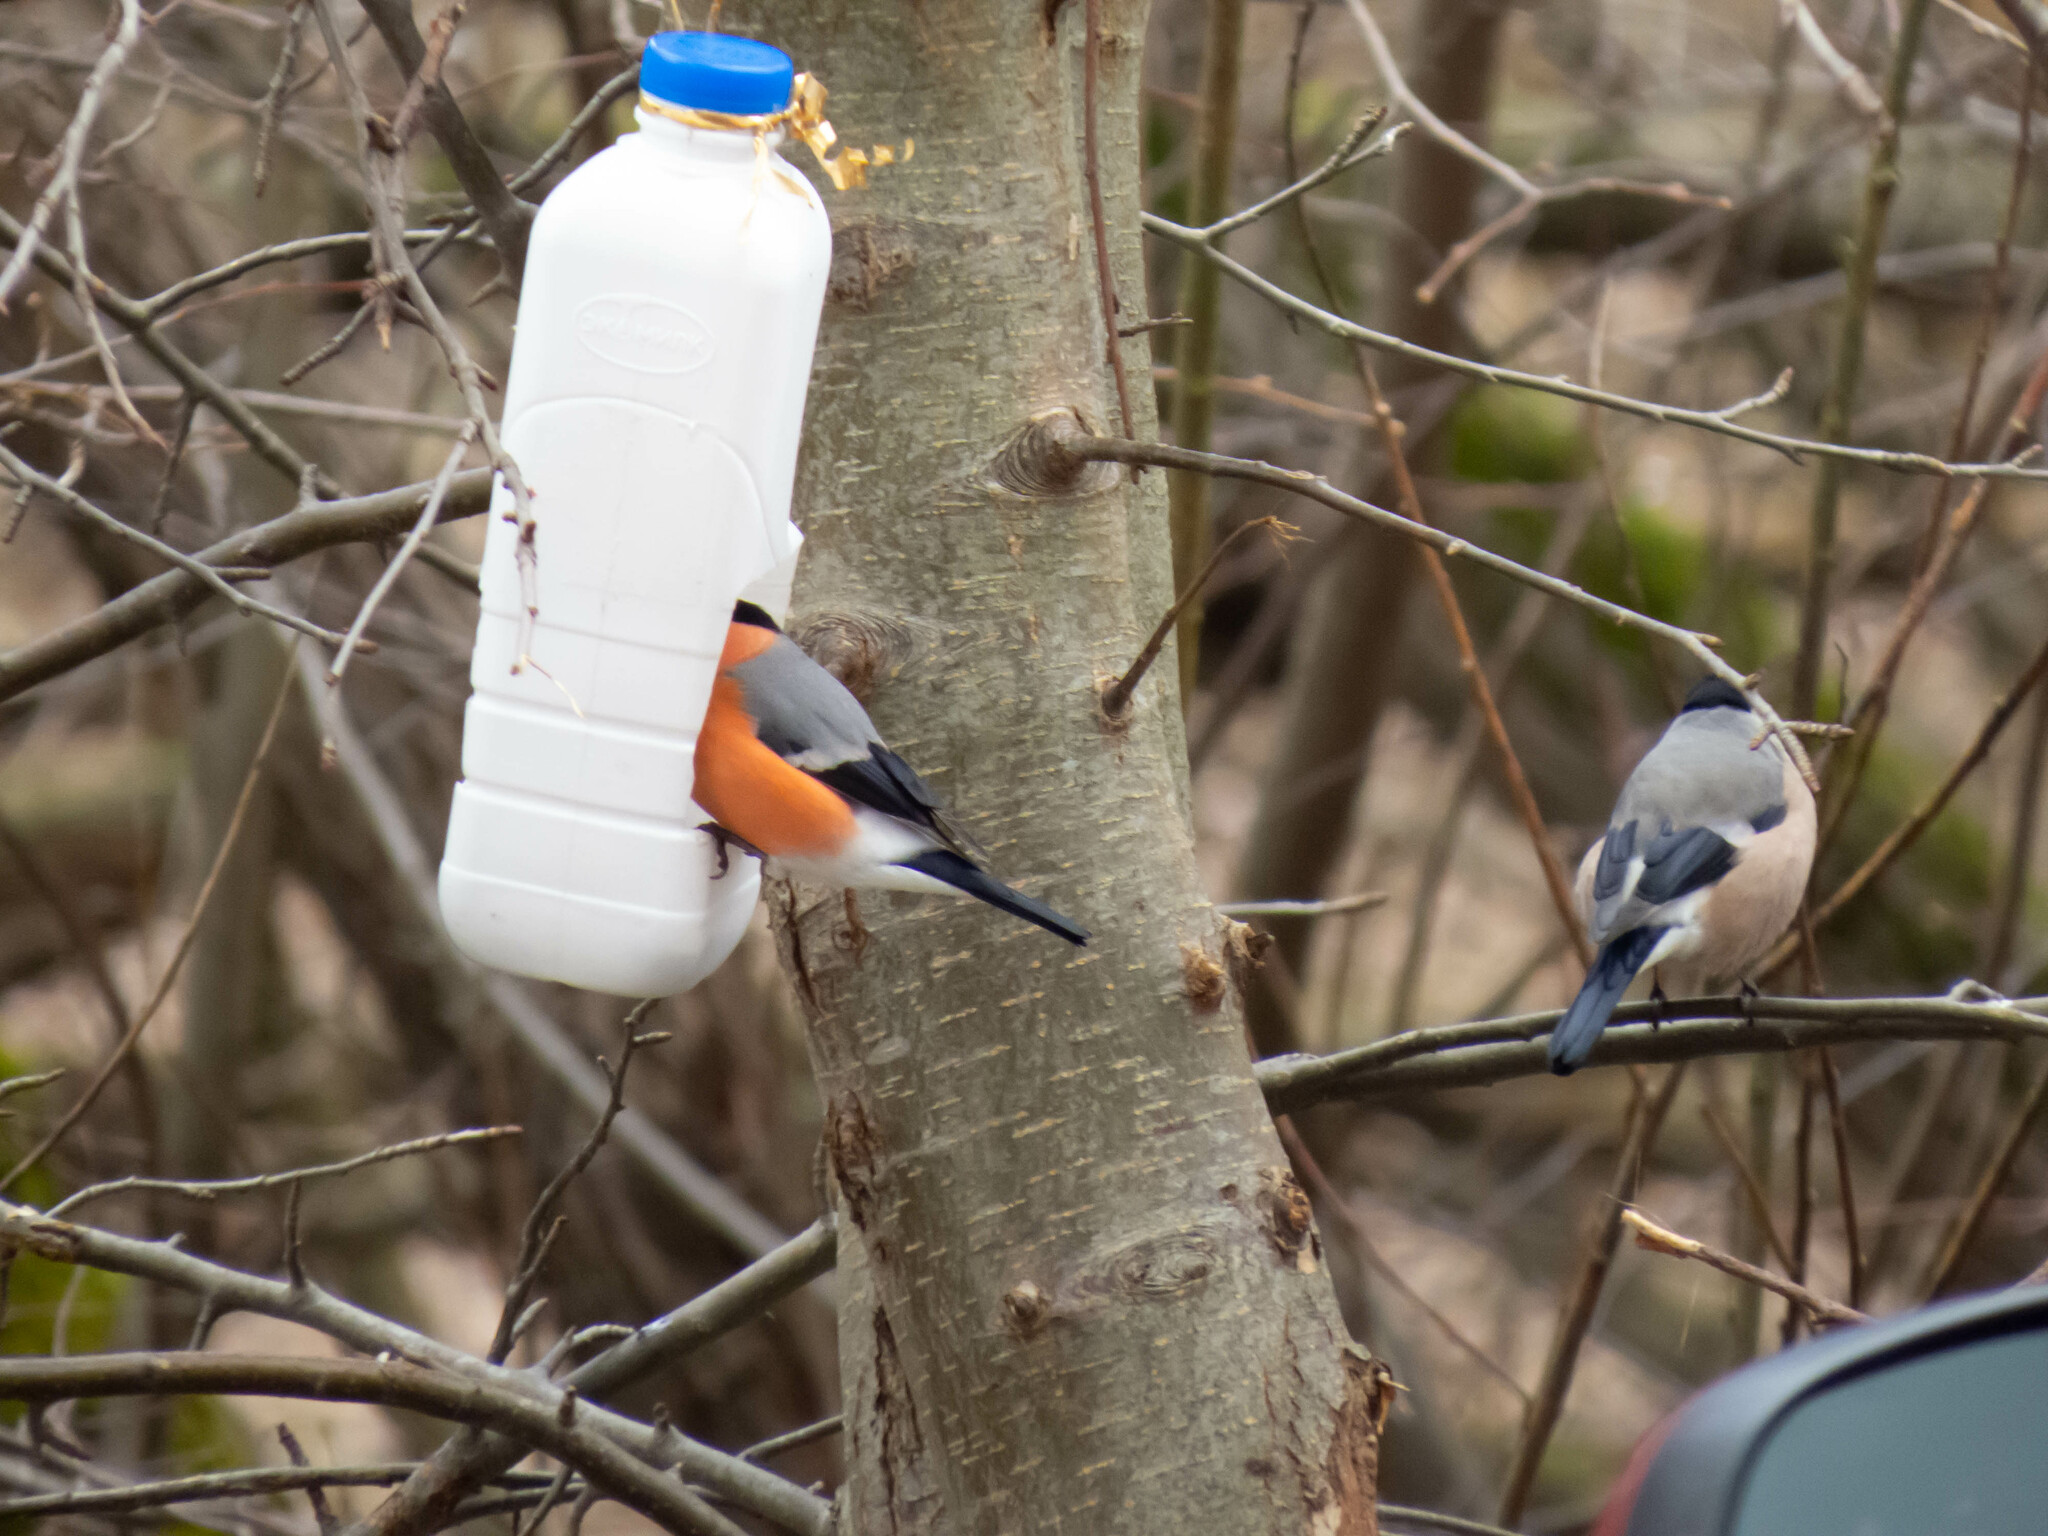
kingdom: Animalia
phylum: Chordata
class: Aves
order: Passeriformes
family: Fringillidae
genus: Pyrrhula
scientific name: Pyrrhula pyrrhula
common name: Eurasian bullfinch
